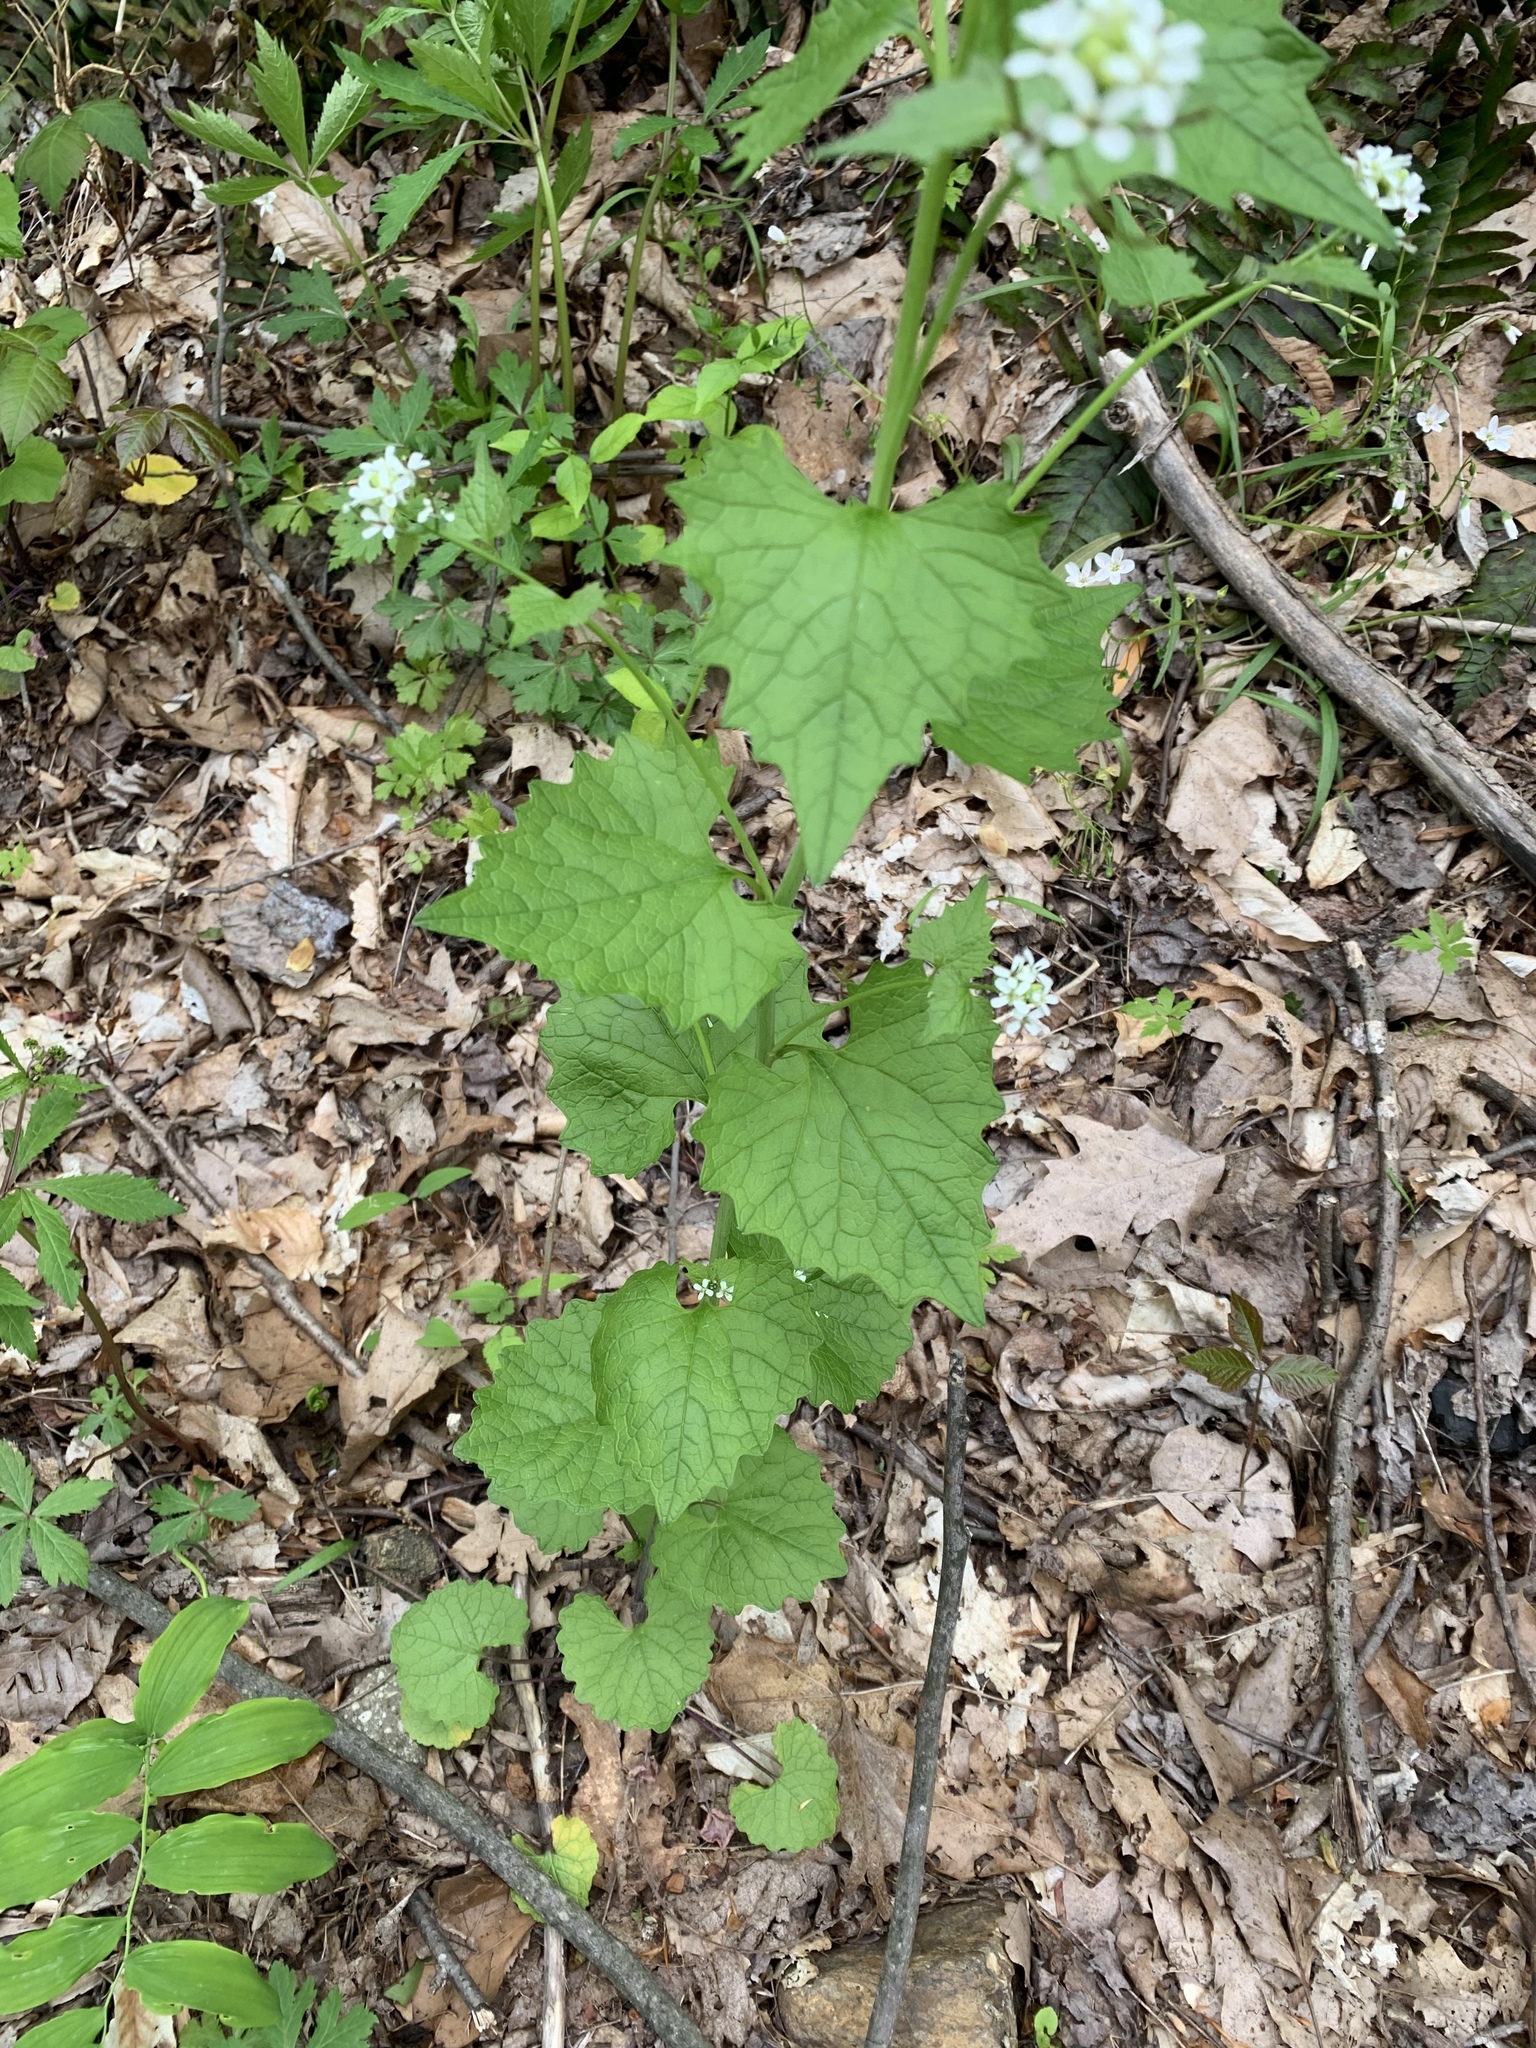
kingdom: Plantae
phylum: Tracheophyta
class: Magnoliopsida
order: Brassicales
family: Brassicaceae
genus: Alliaria
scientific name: Alliaria petiolata
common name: Garlic mustard
